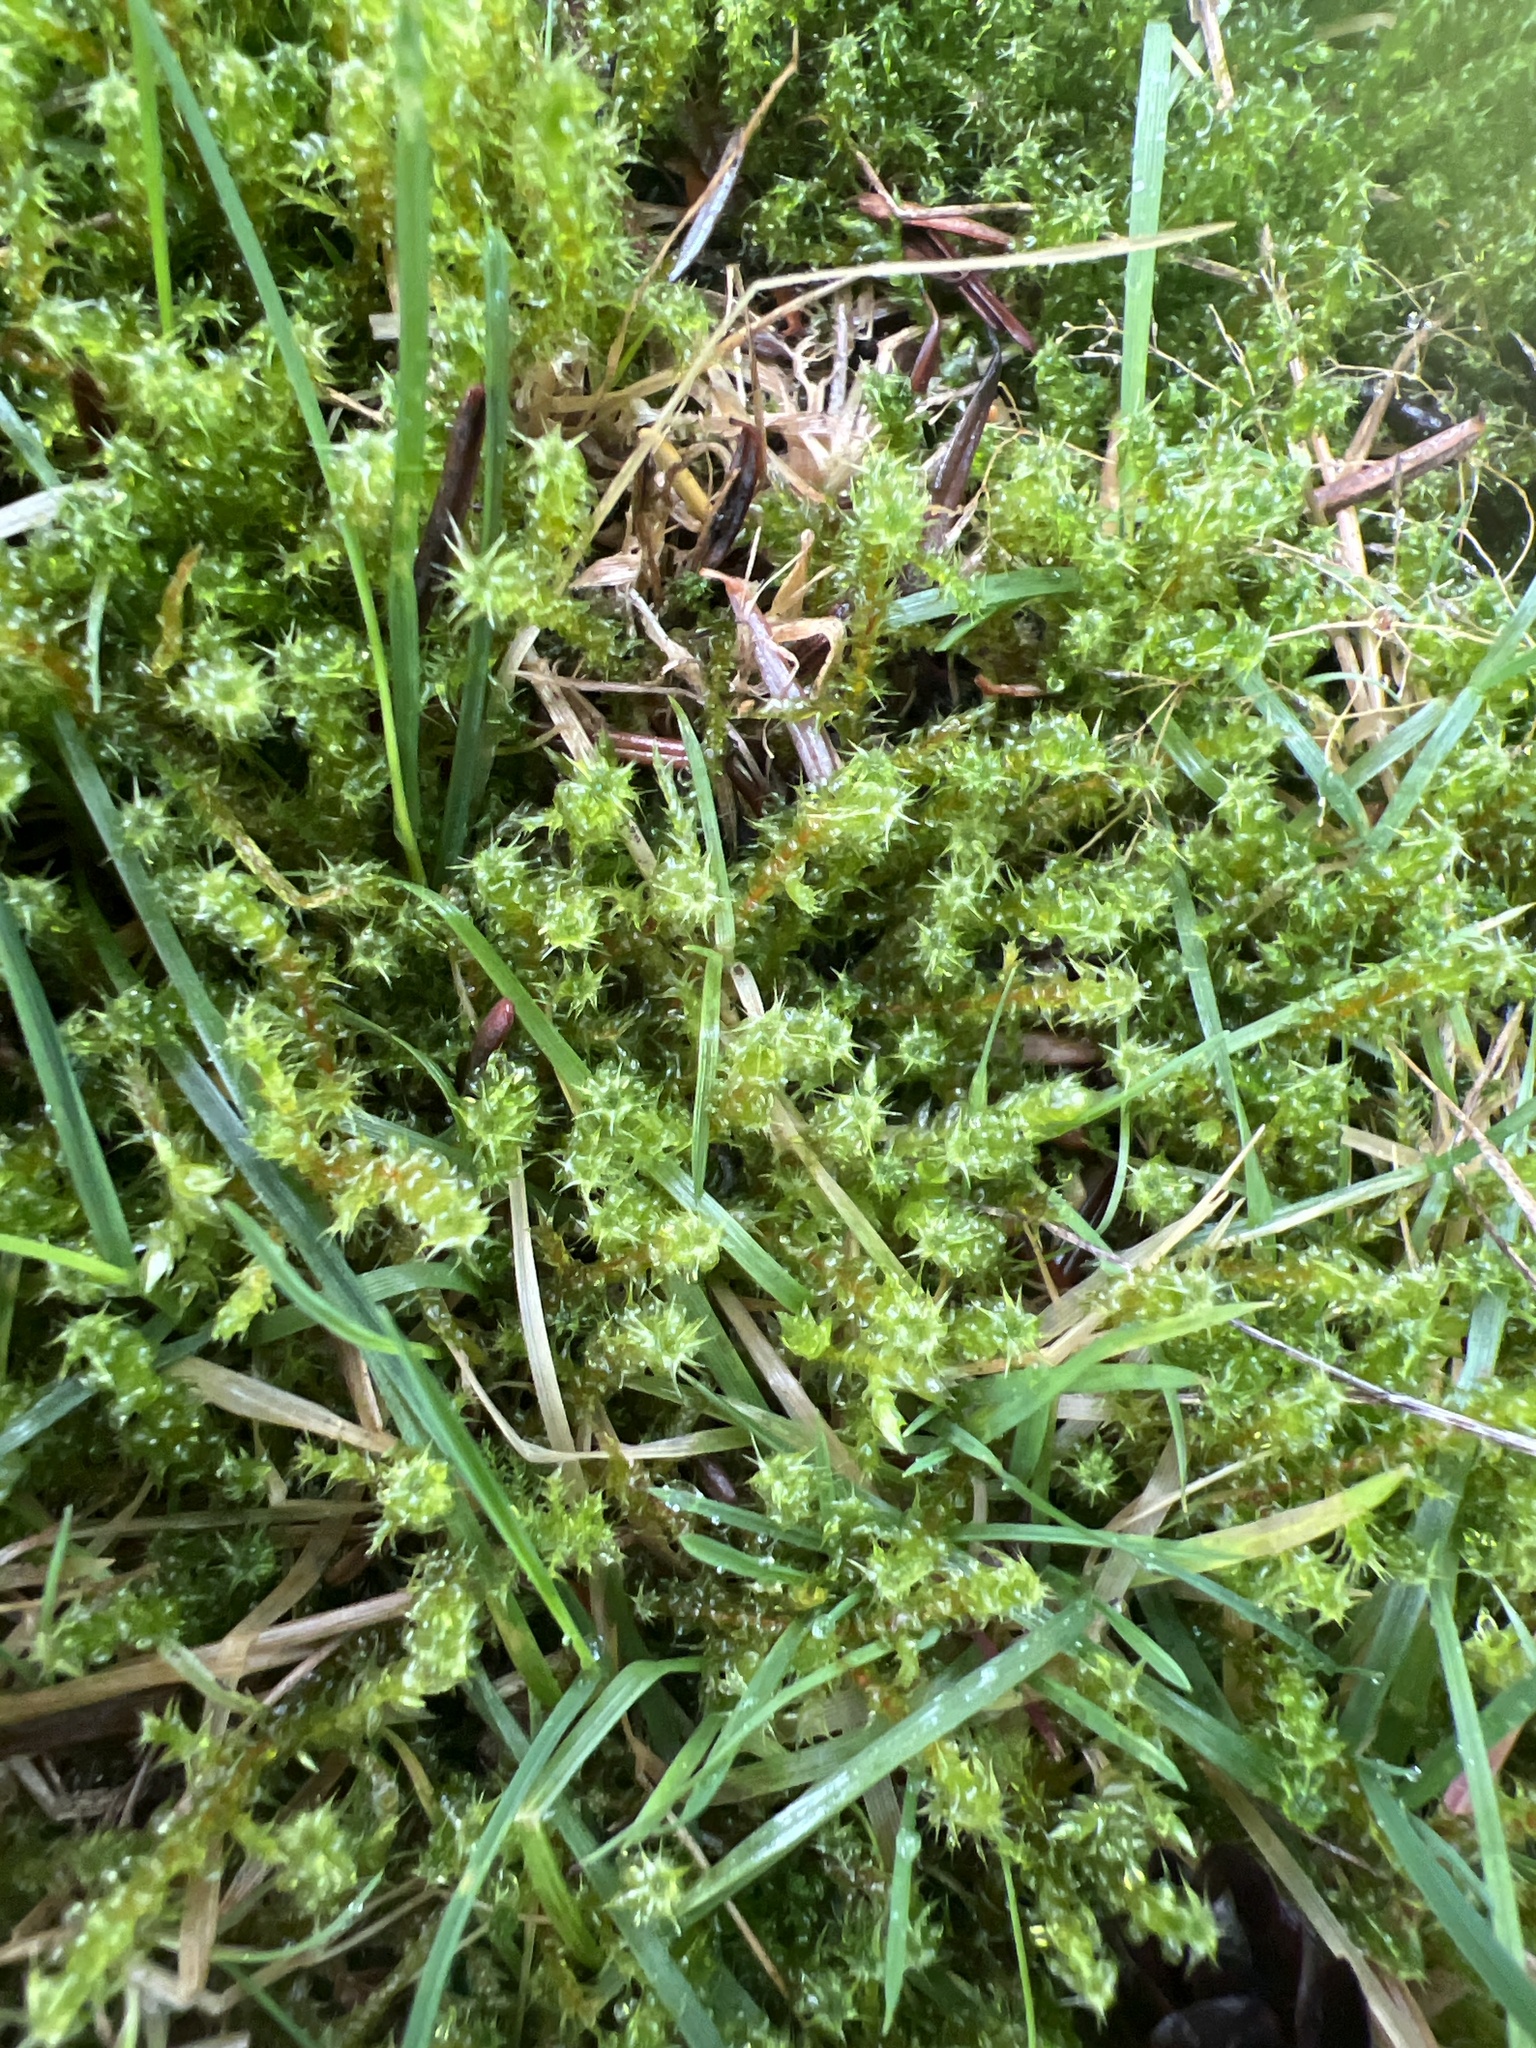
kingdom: Plantae
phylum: Bryophyta
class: Bryopsida
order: Hypnales
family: Hylocomiaceae
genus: Rhytidiadelphus
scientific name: Rhytidiadelphus squarrosus
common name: Springy turf-moss
